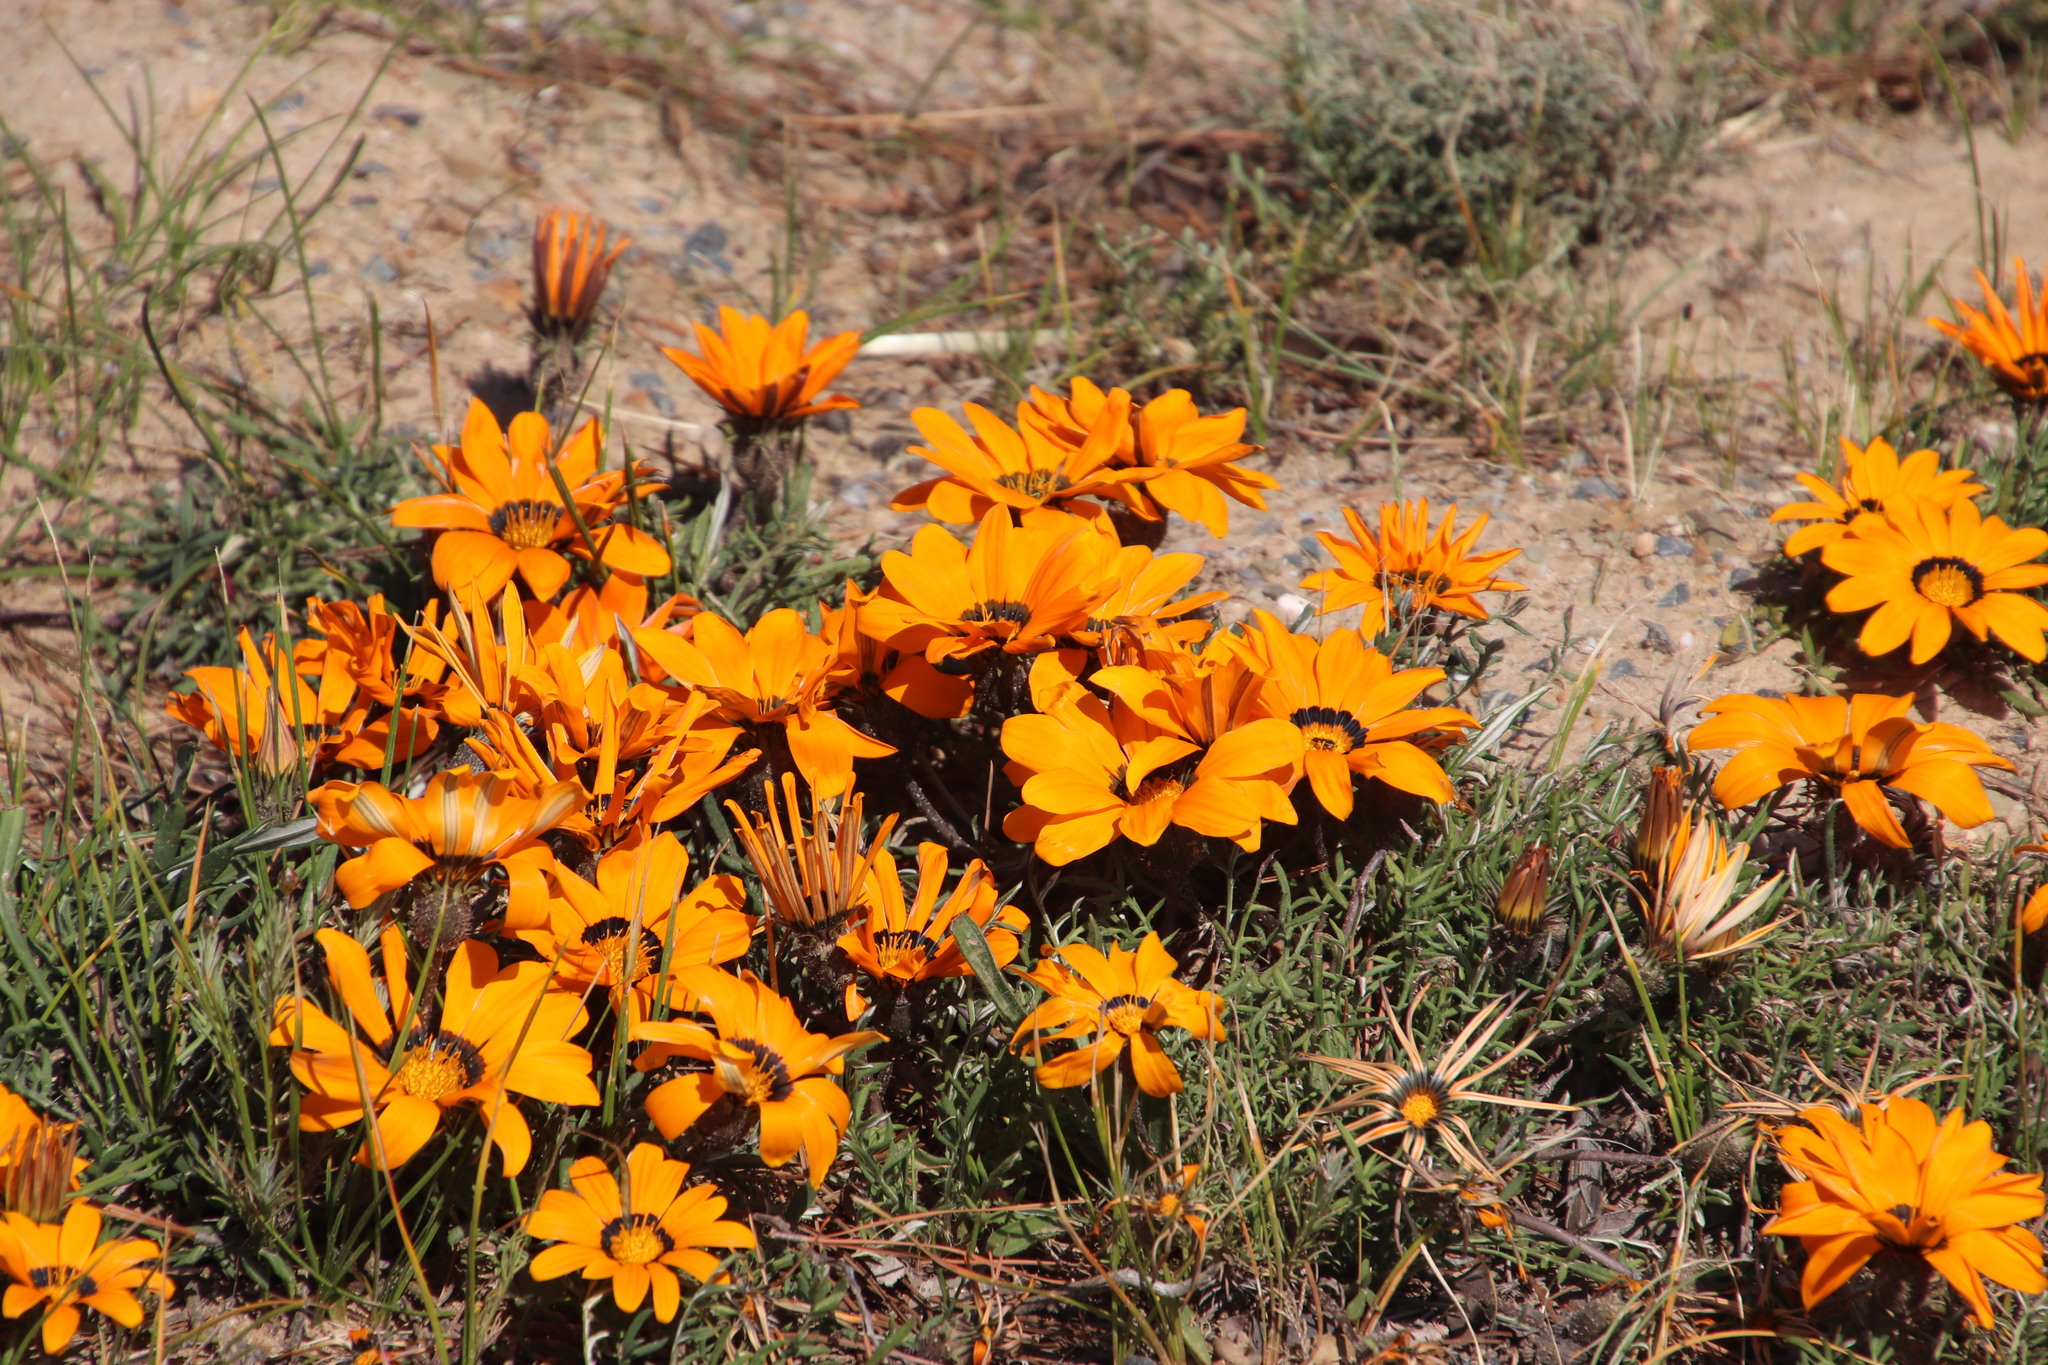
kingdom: Plantae
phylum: Tracheophyta
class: Magnoliopsida
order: Asterales
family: Asteraceae
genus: Gazania
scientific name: Gazania rigida
